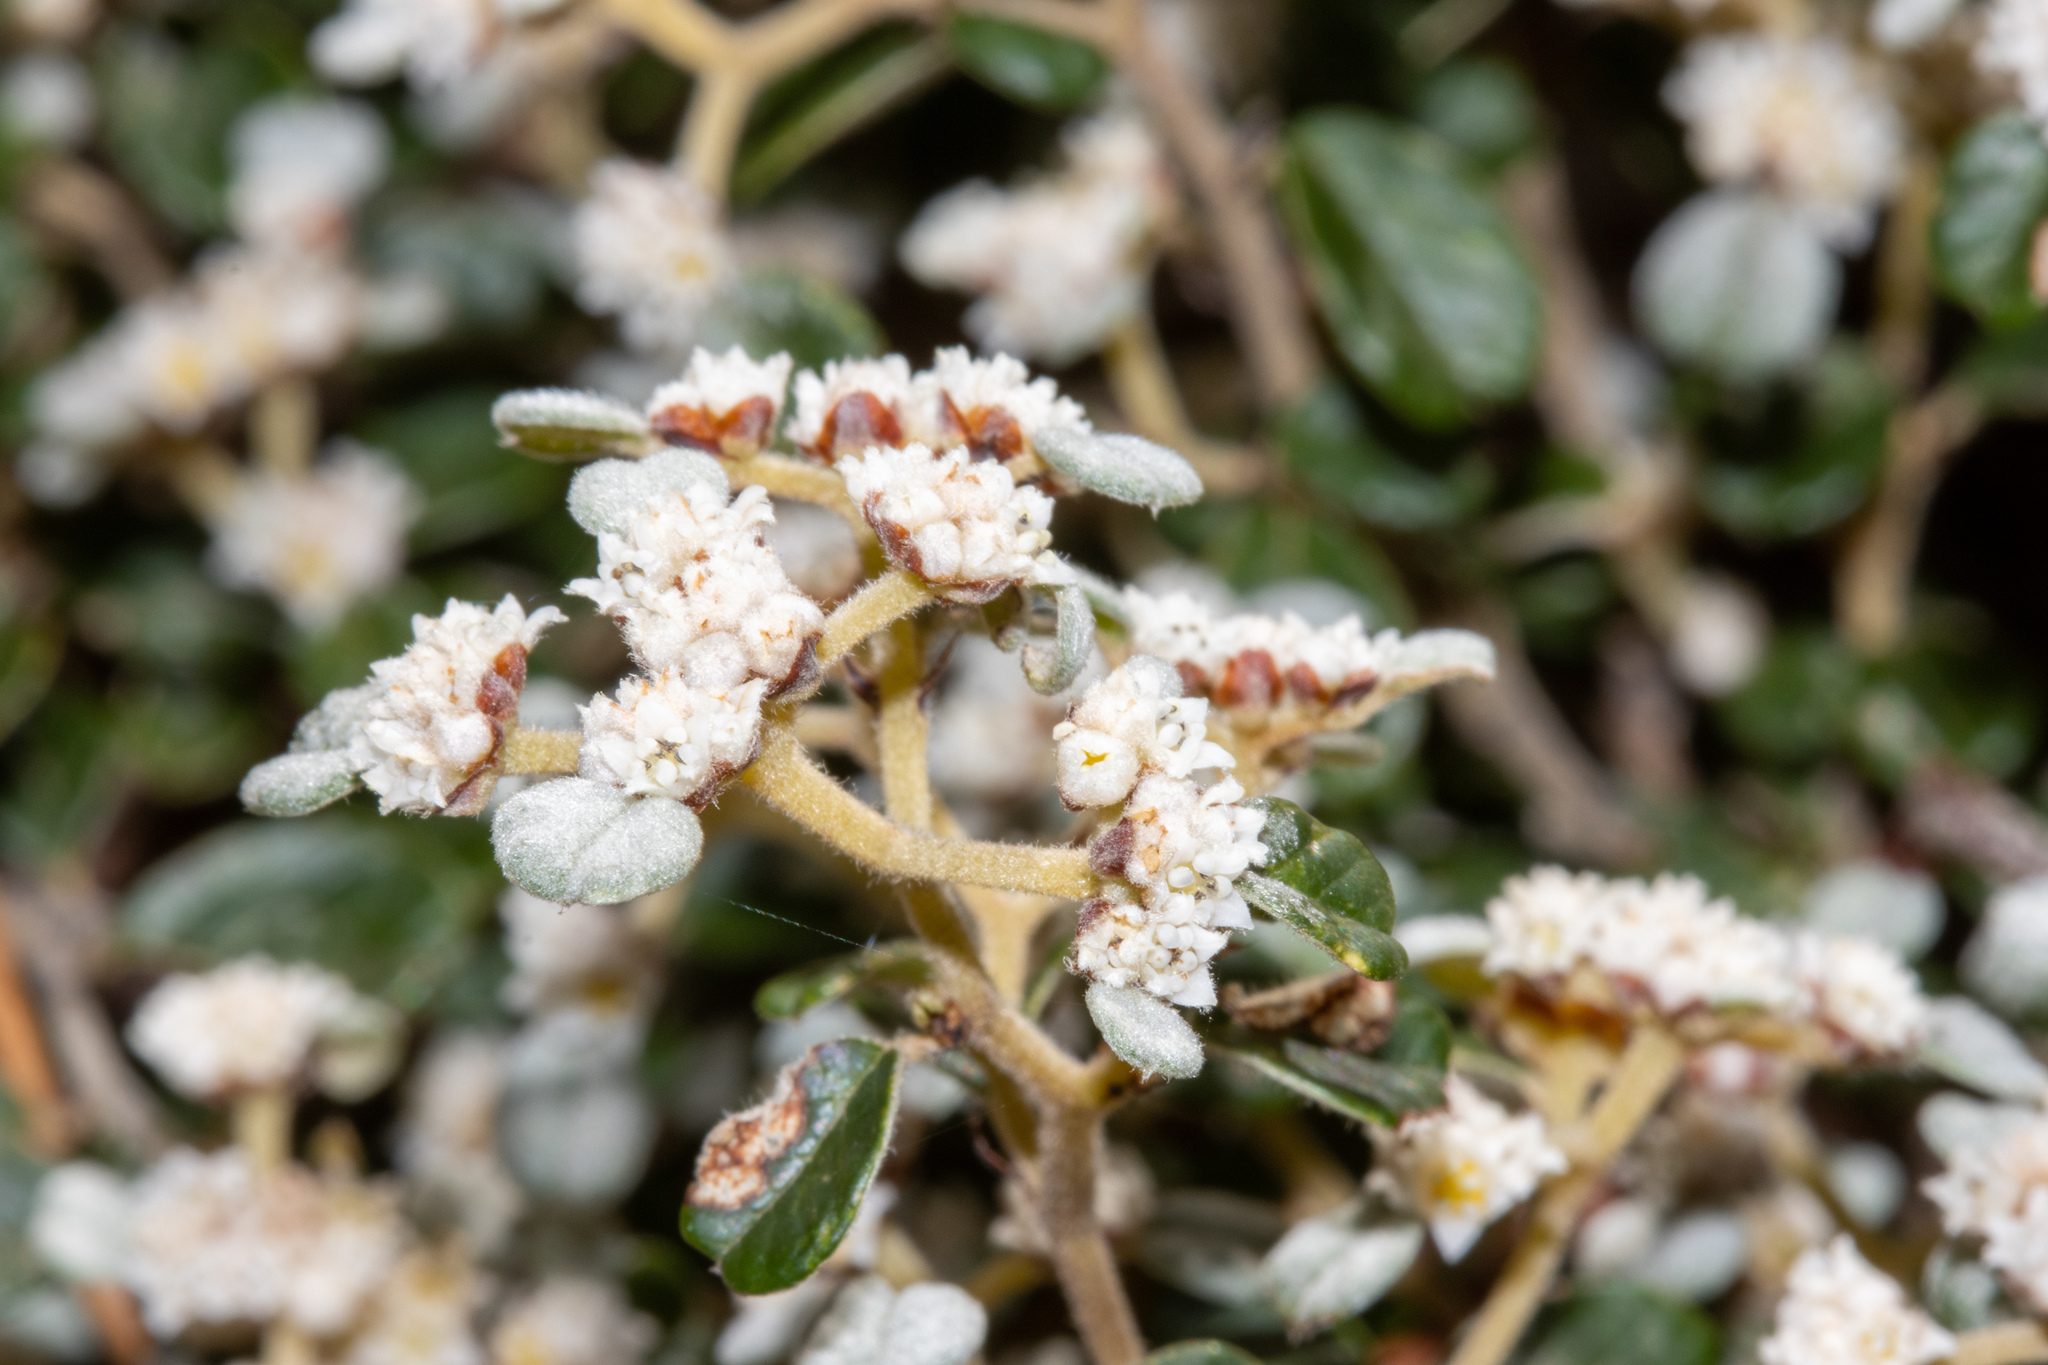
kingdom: Plantae
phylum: Tracheophyta
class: Magnoliopsida
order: Rosales
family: Rhamnaceae
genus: Spyridium
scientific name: Spyridium parvifolium
